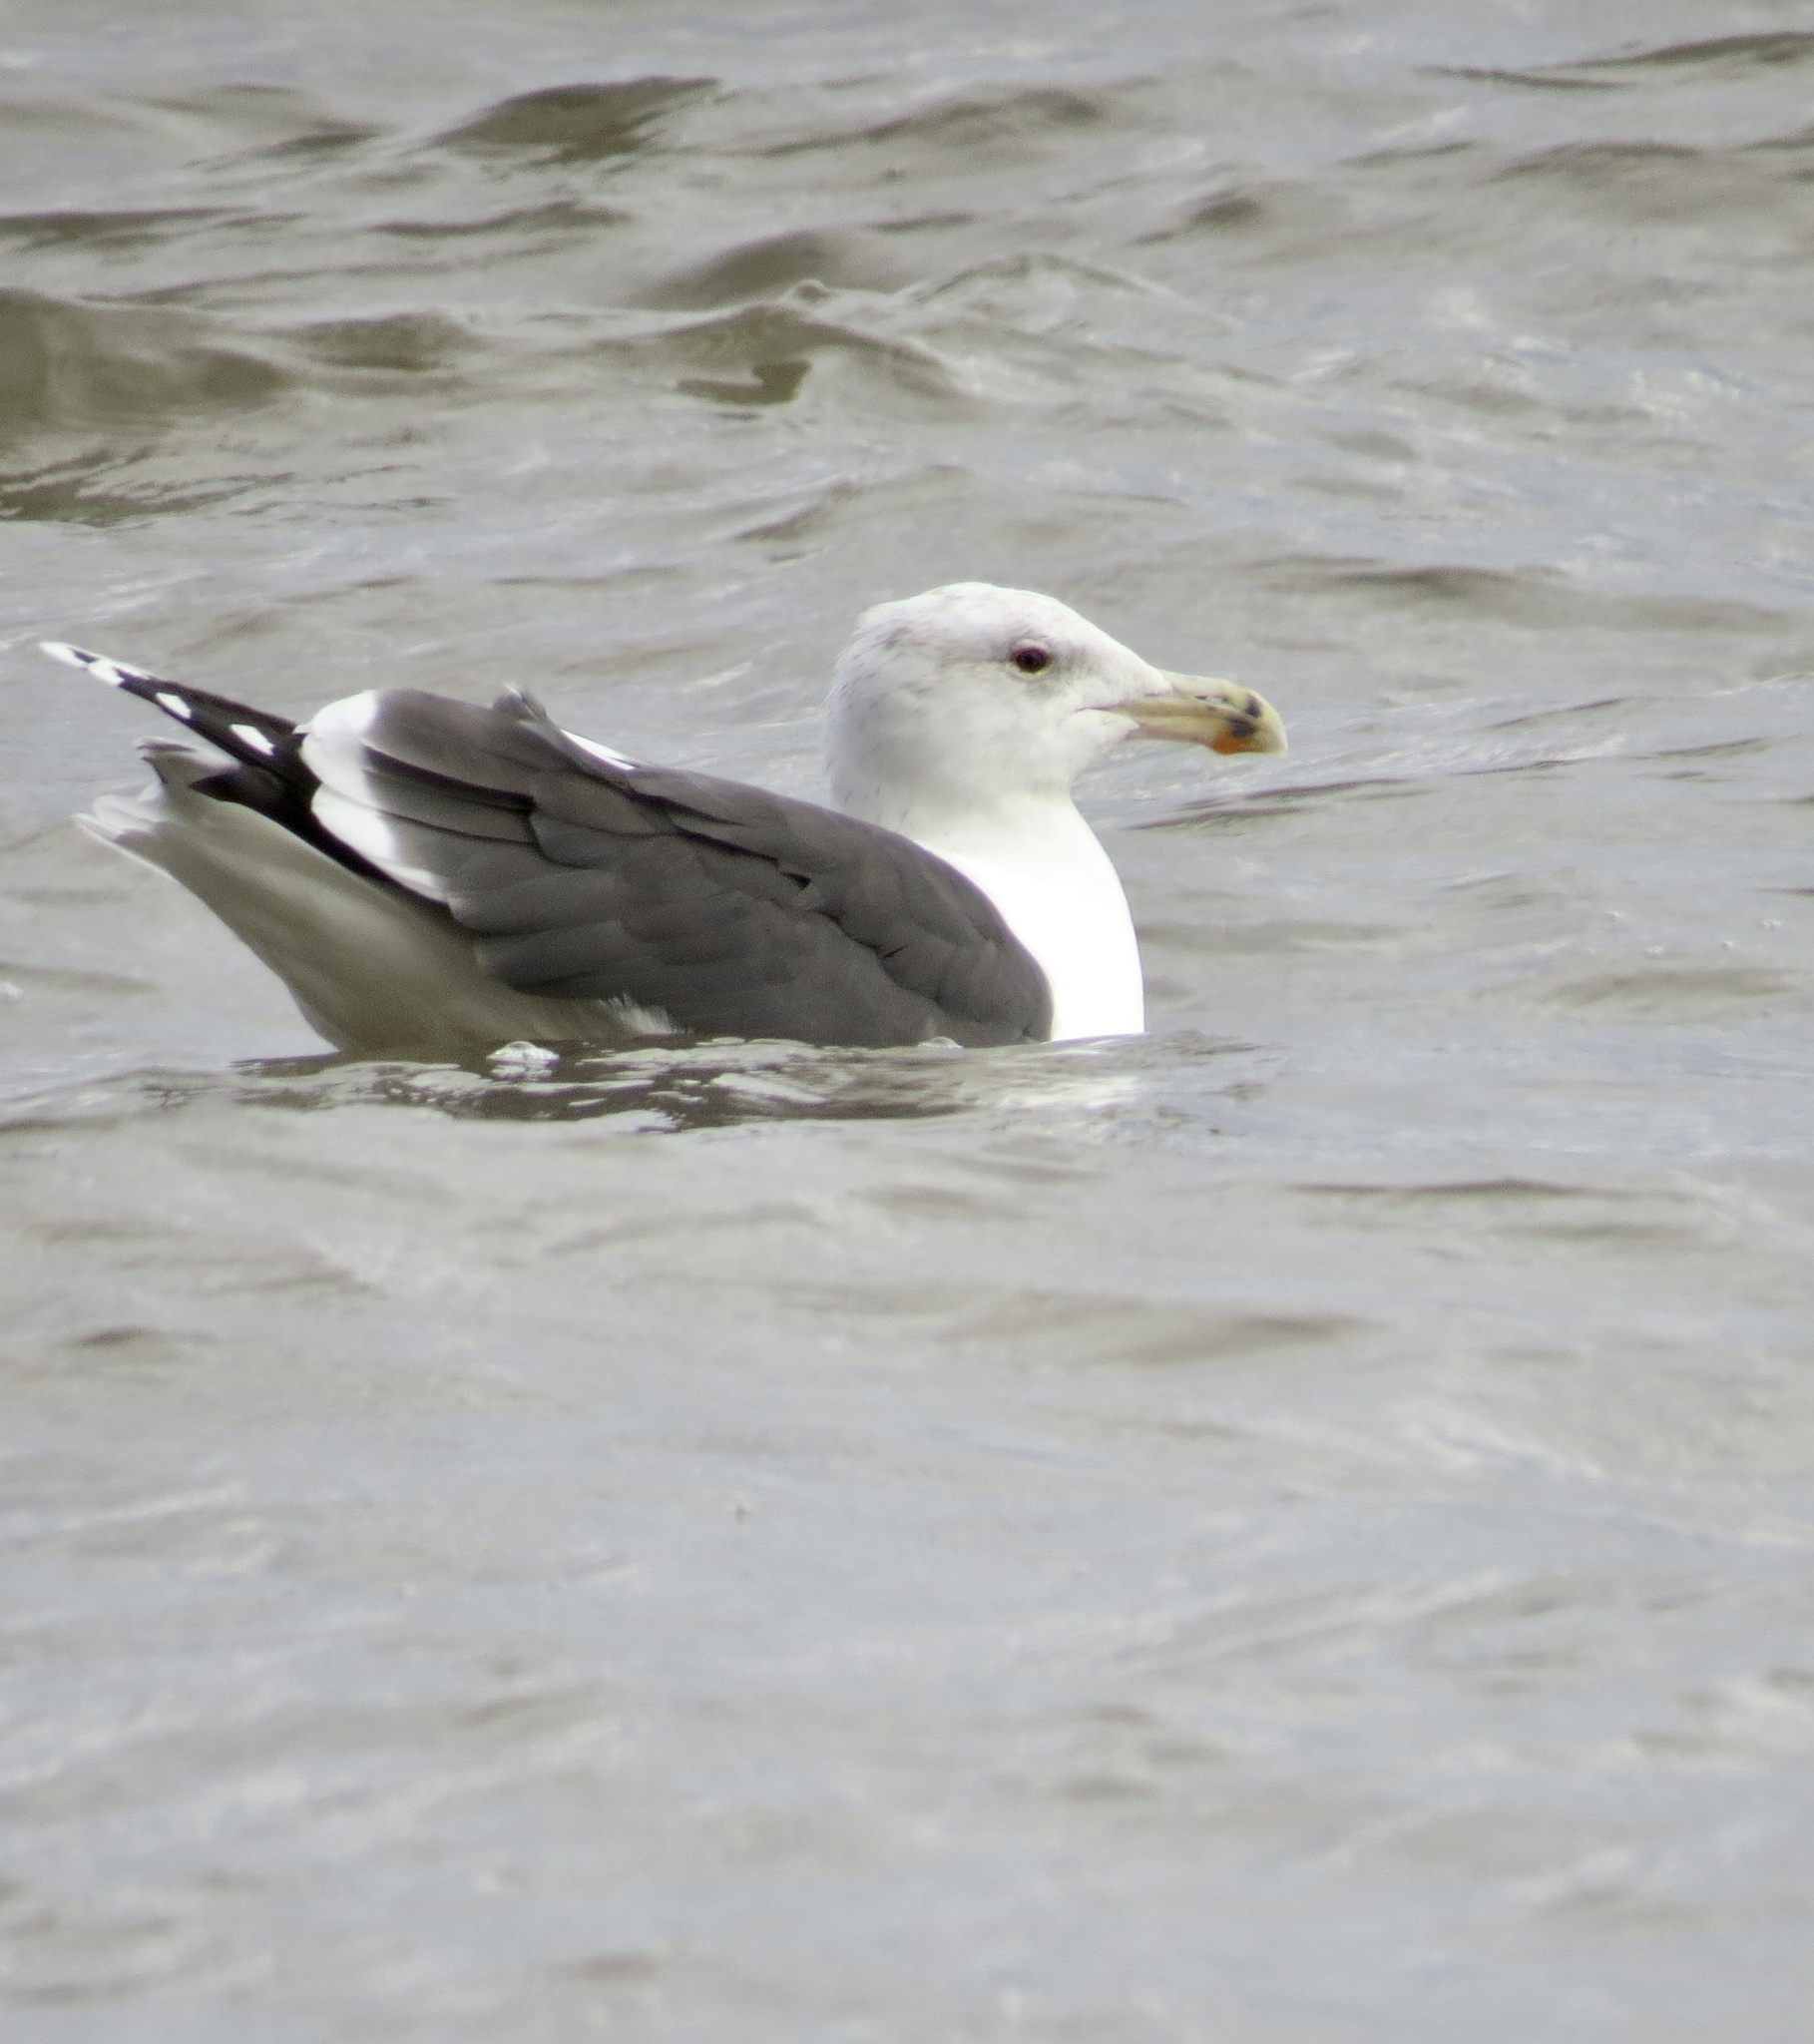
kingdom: Animalia
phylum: Chordata
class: Aves
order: Charadriiformes
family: Laridae
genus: Larus
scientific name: Larus marinus
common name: Great black-backed gull
